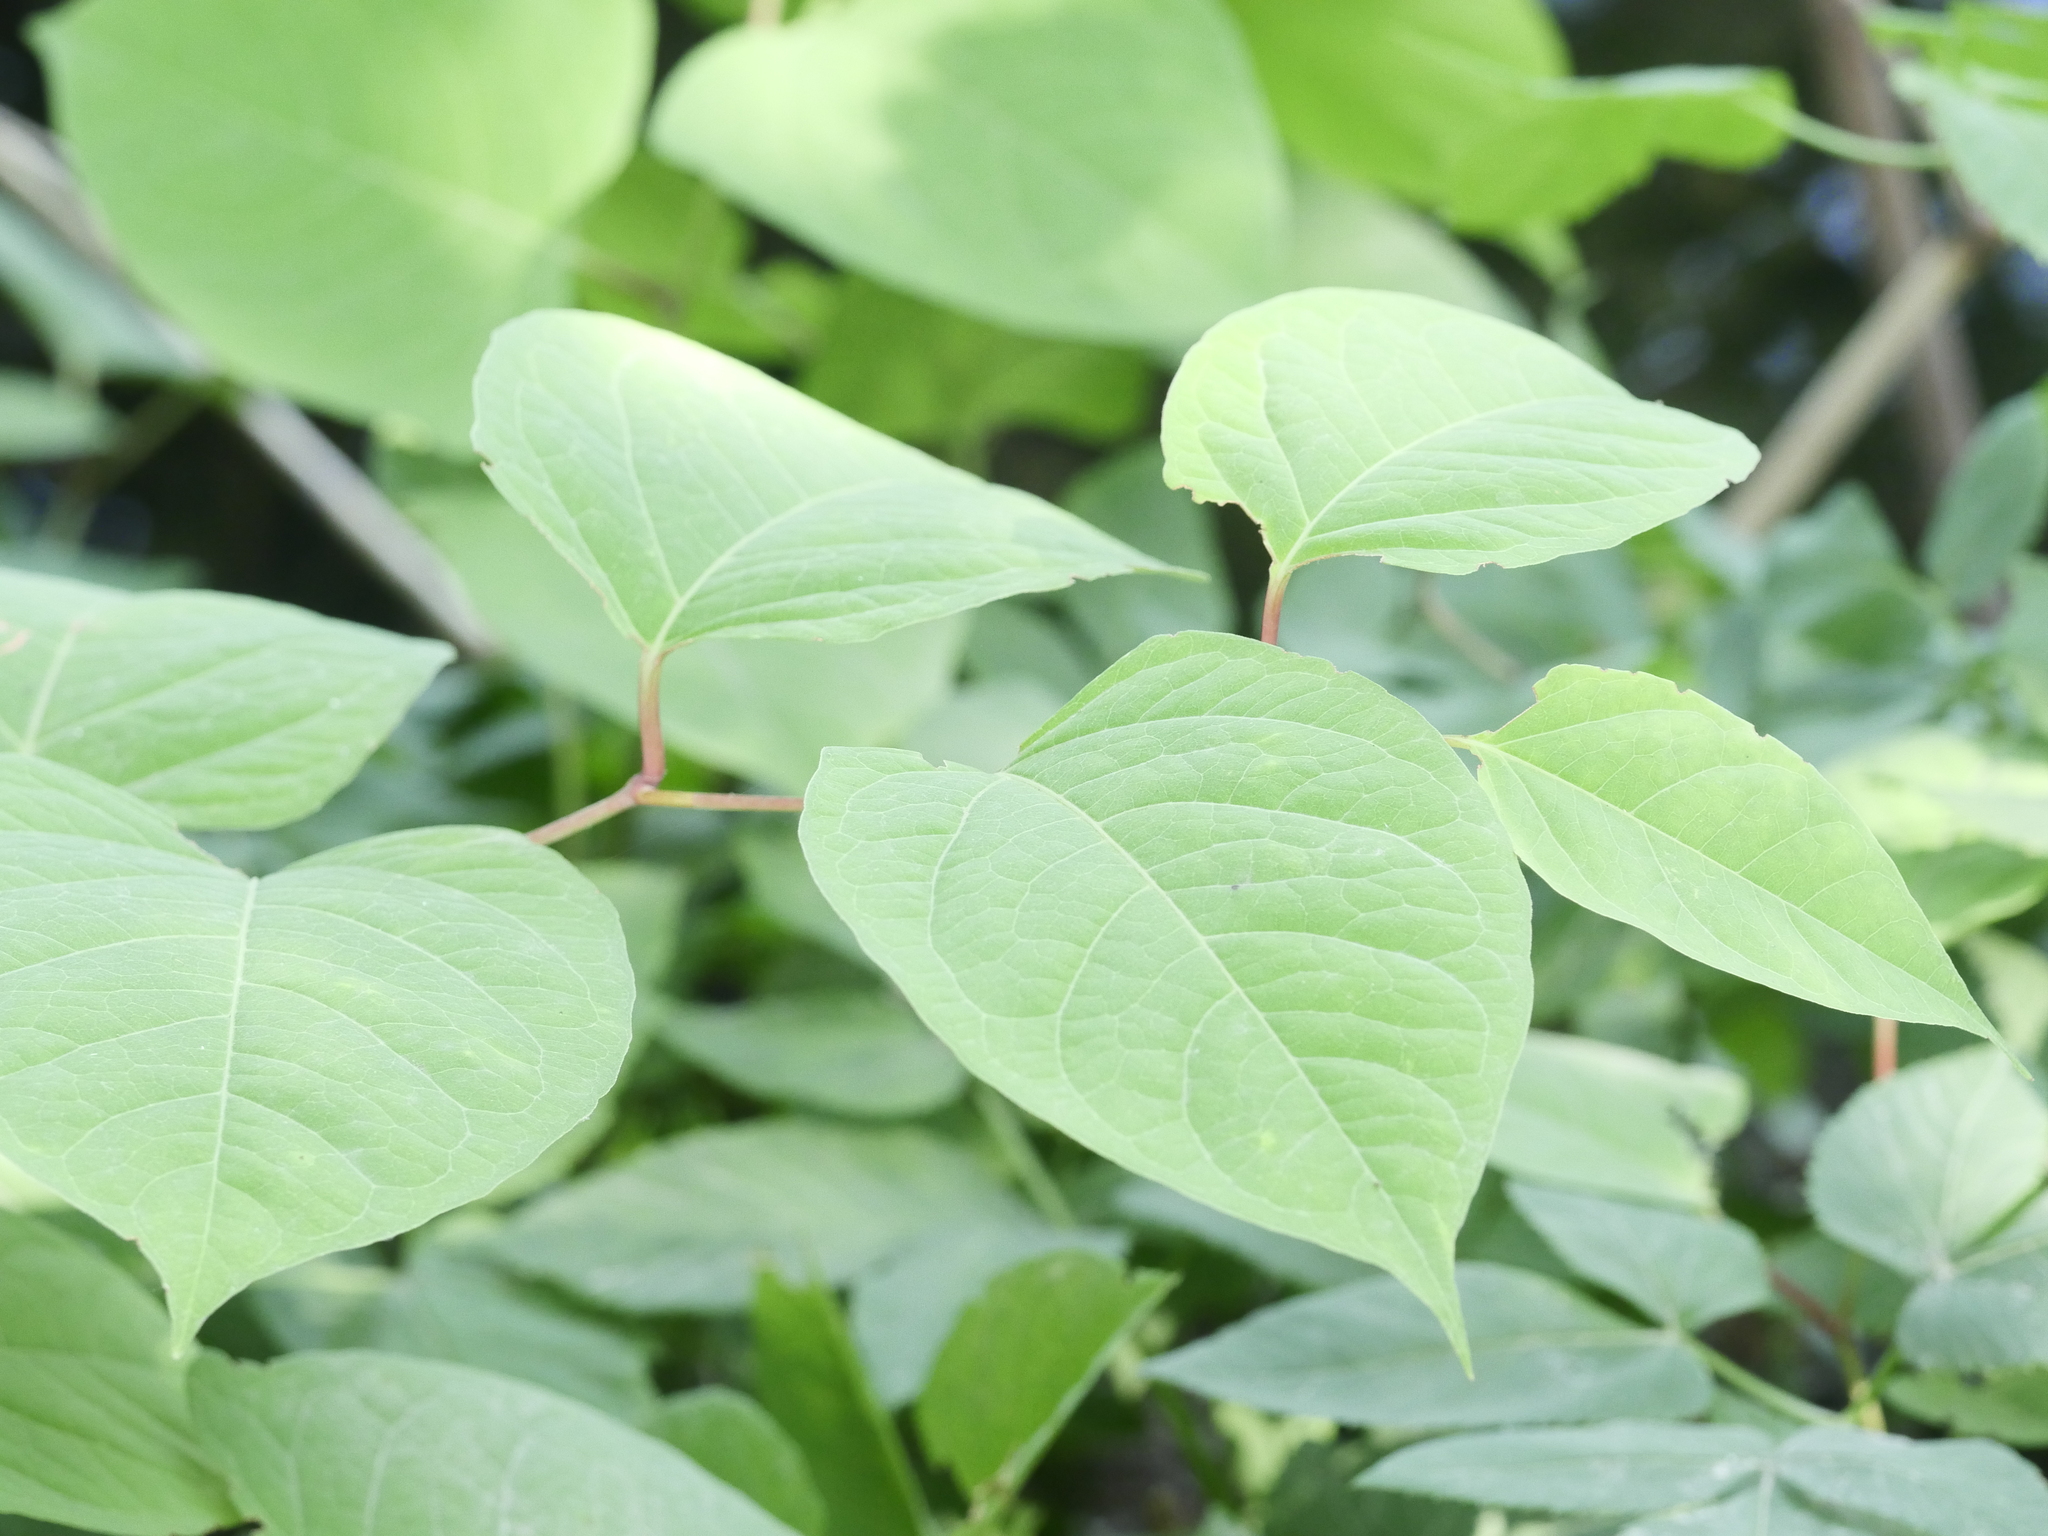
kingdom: Plantae
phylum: Tracheophyta
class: Magnoliopsida
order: Caryophyllales
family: Polygonaceae
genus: Reynoutria
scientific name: Reynoutria japonica
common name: Japanese knotweed
